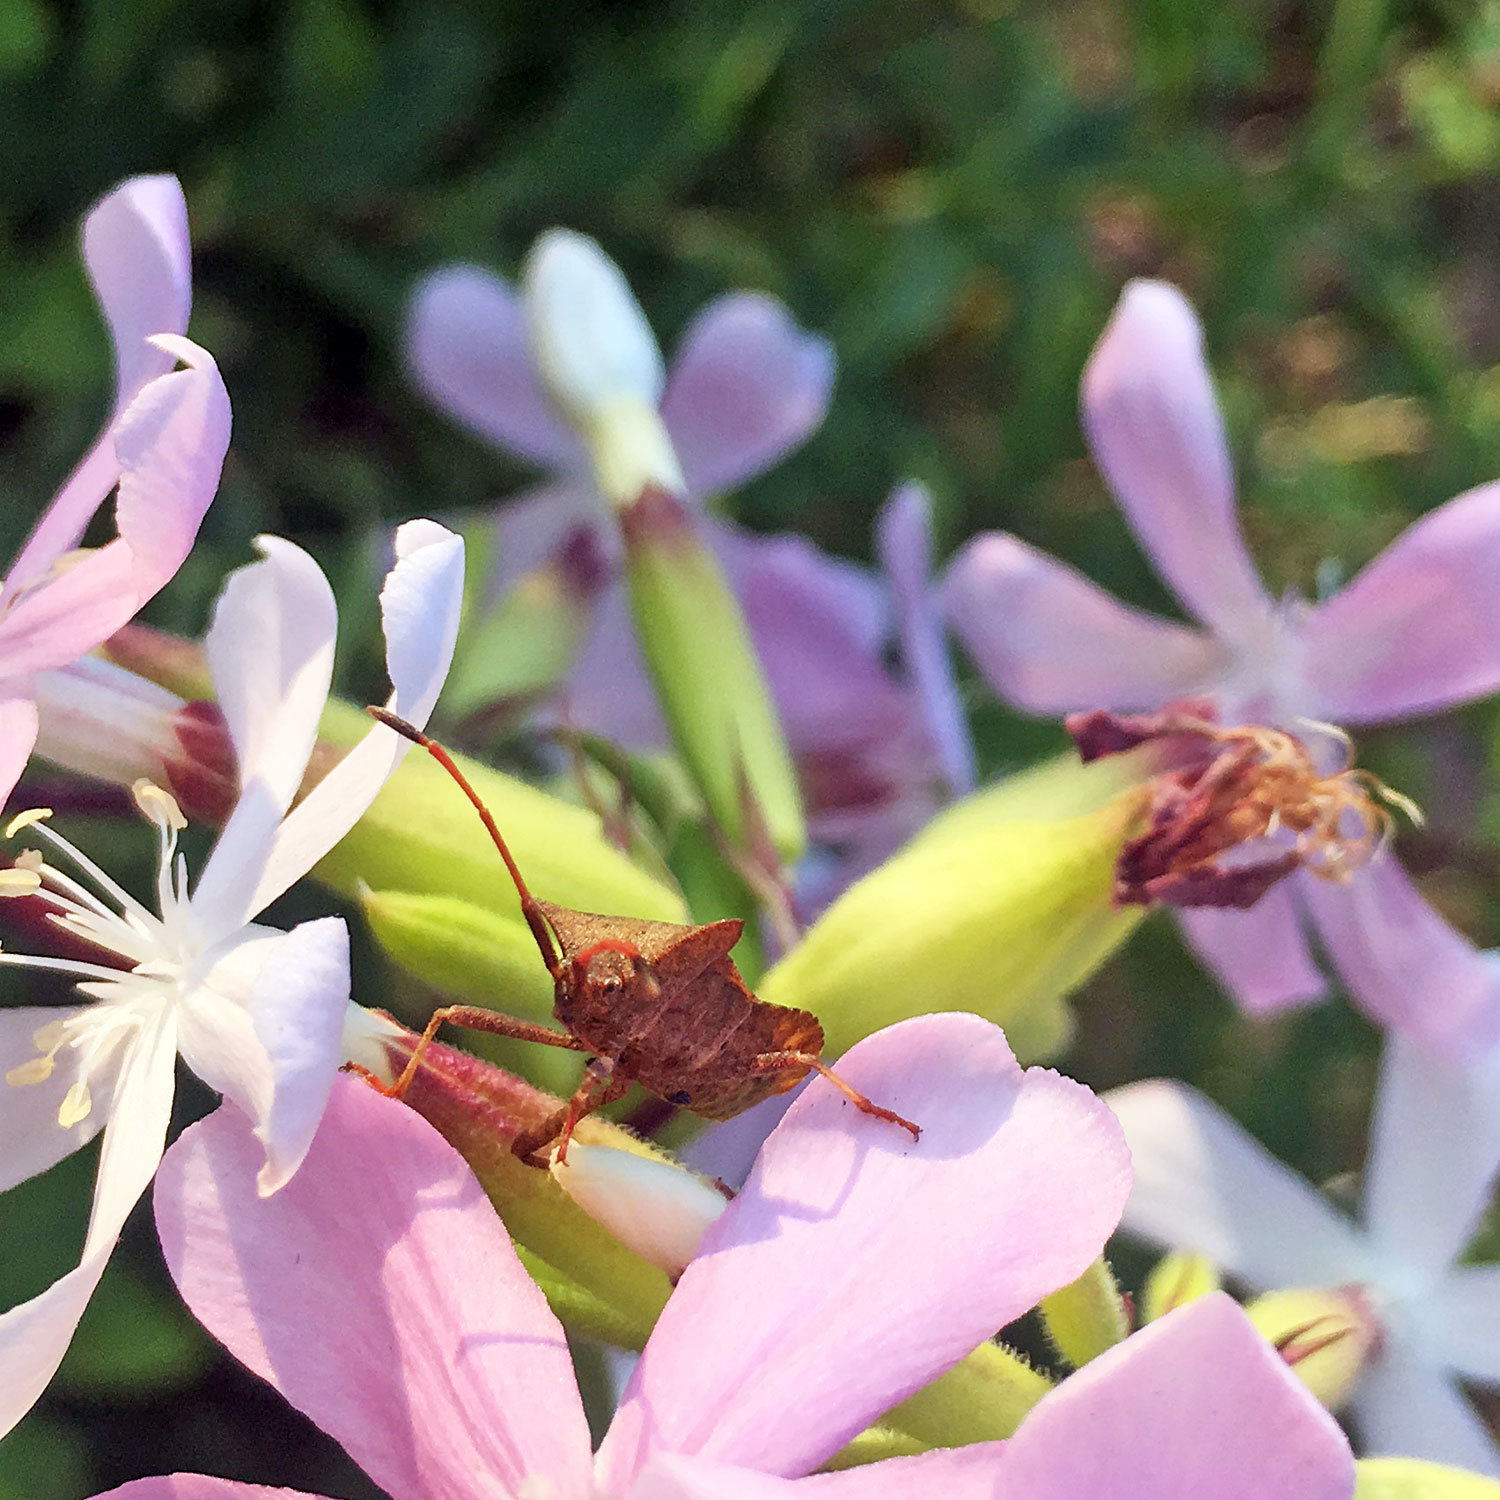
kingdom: Animalia
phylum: Arthropoda
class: Insecta
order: Hemiptera
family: Coreidae
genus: Coreus
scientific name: Coreus marginatus
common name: Dock bug
